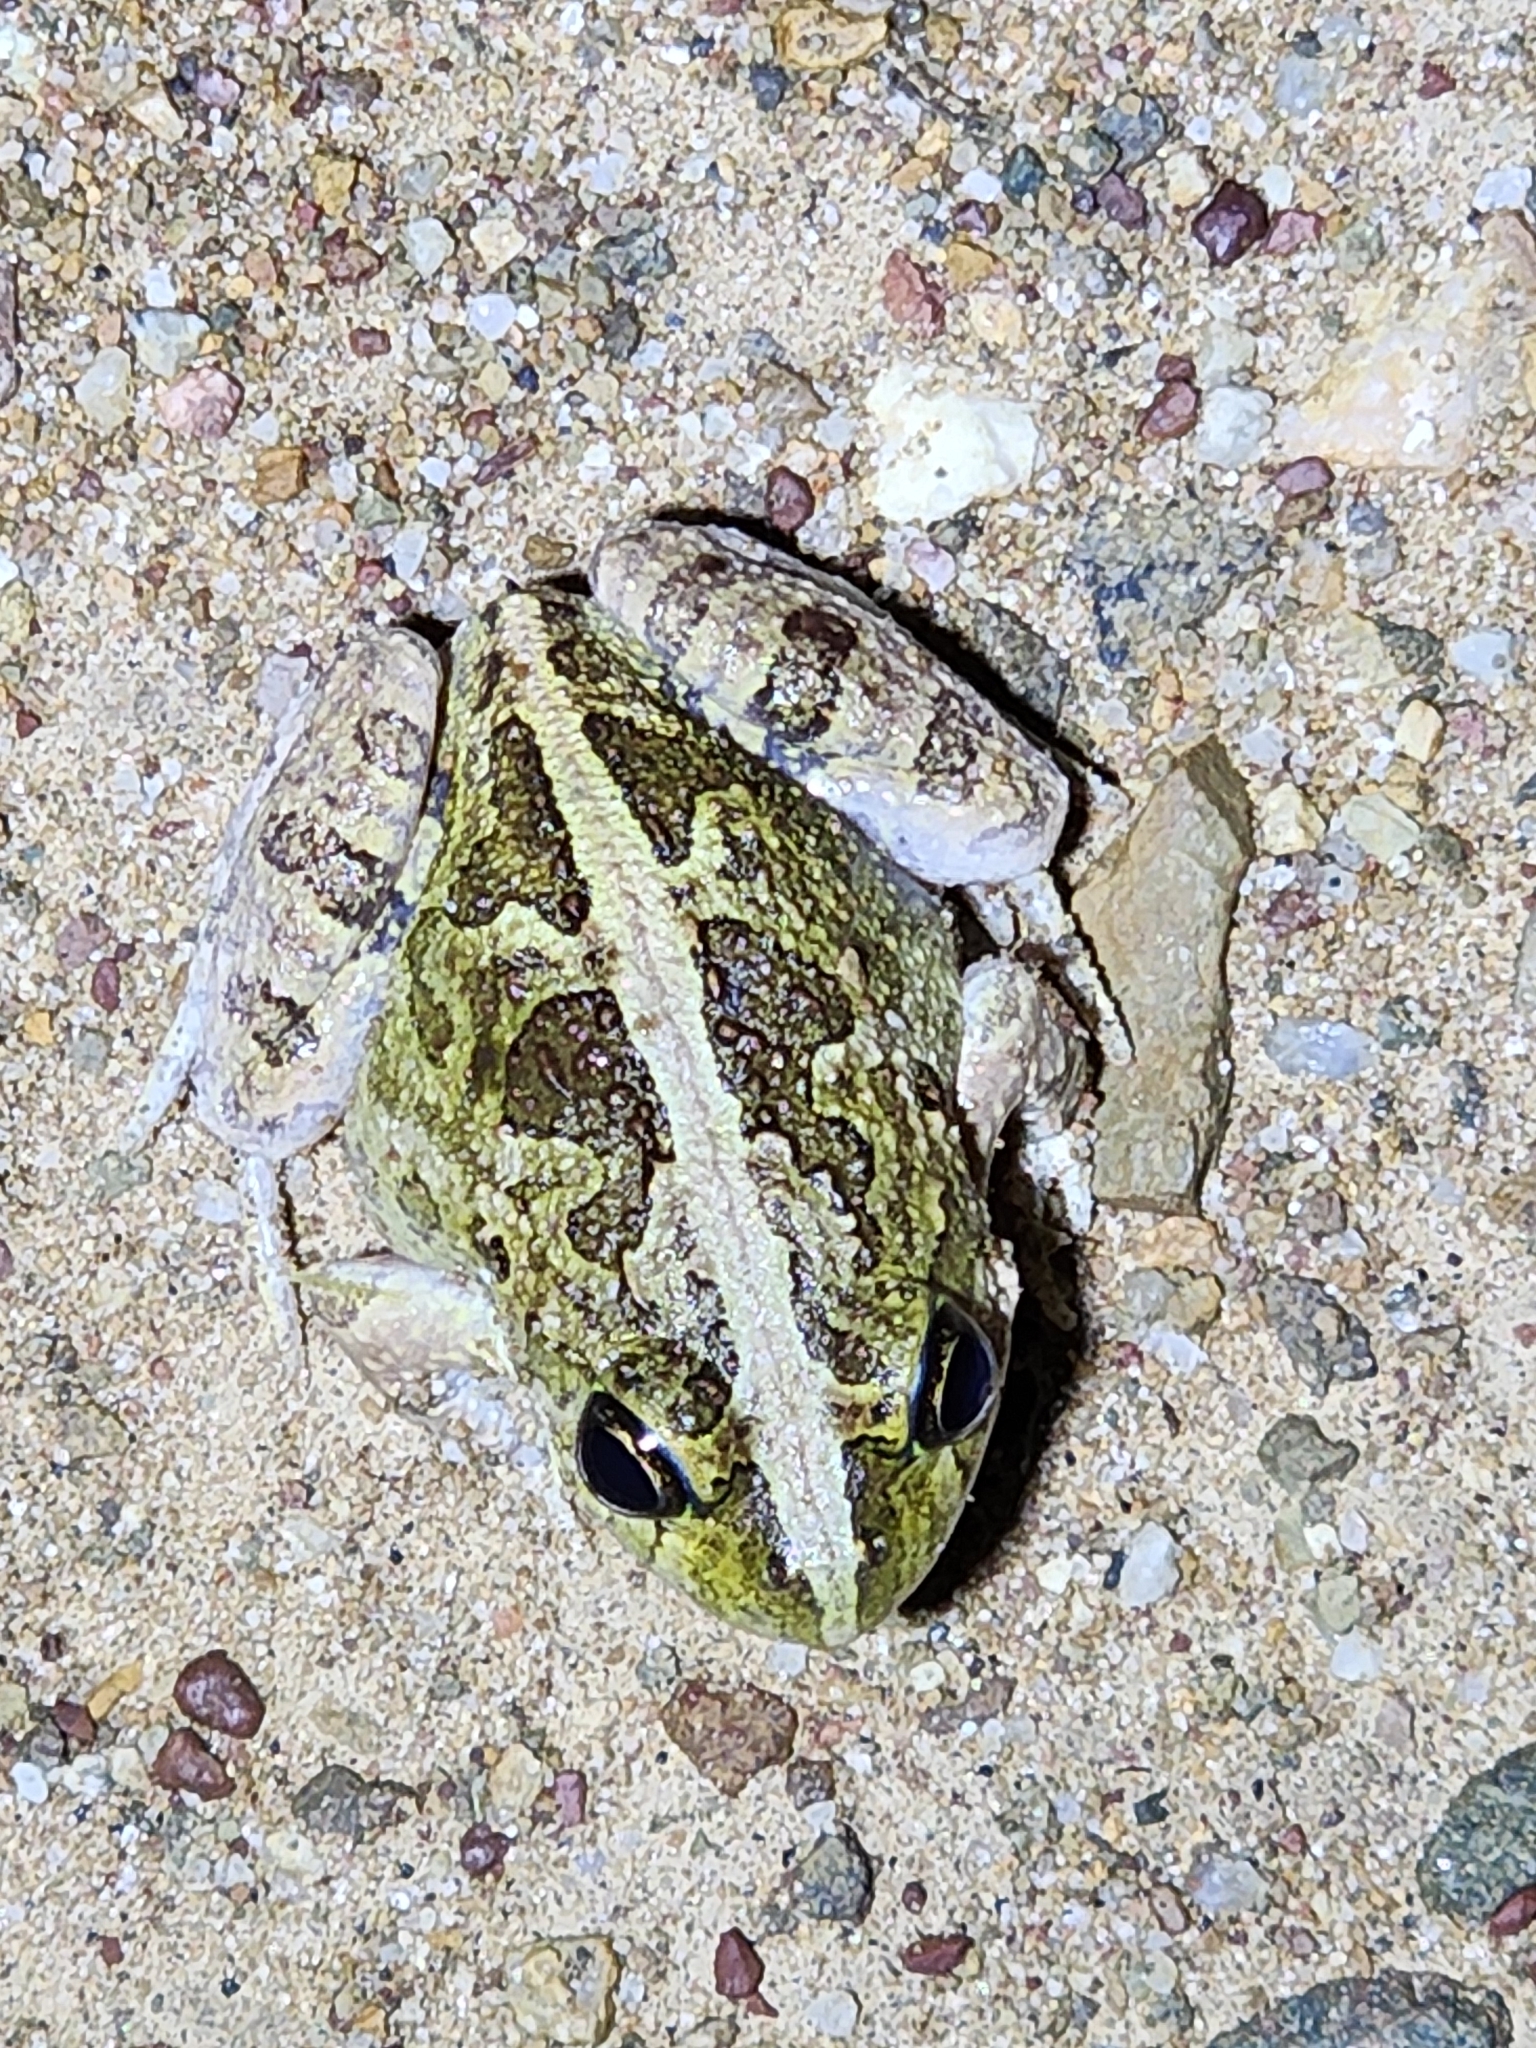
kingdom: Animalia
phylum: Chordata
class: Amphibia
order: Anura
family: Limnodynastidae
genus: Platyplectrum
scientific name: Platyplectrum ornatum
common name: Ornate burrowing frog
